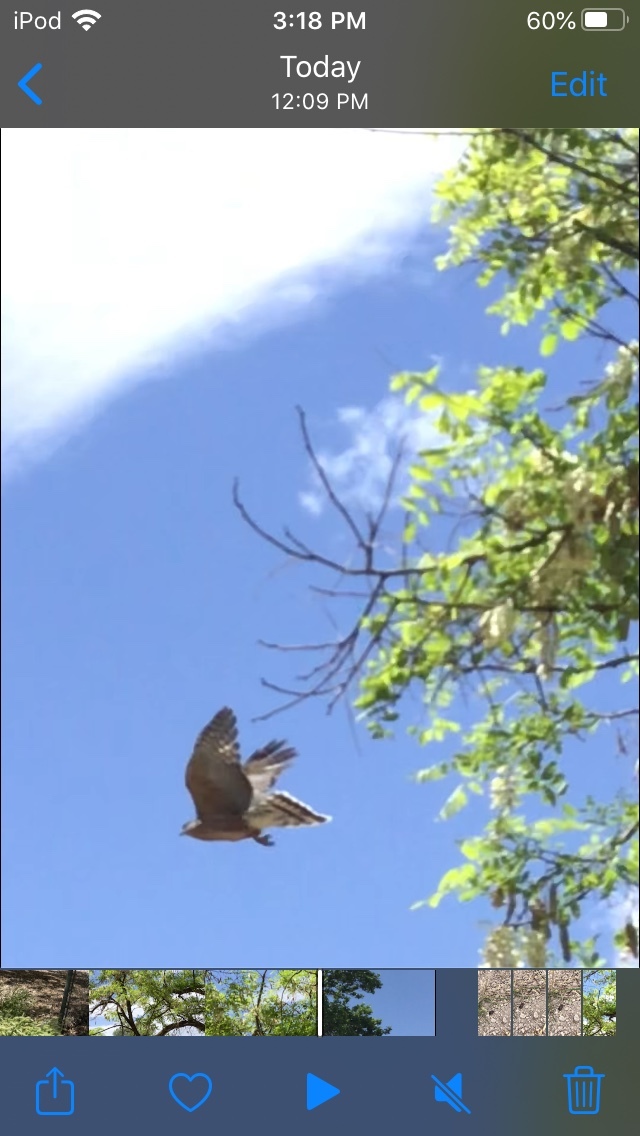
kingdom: Animalia
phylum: Chordata
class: Aves
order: Accipitriformes
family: Accipitridae
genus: Accipiter
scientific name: Accipiter striatus
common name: Sharp-shinned hawk
